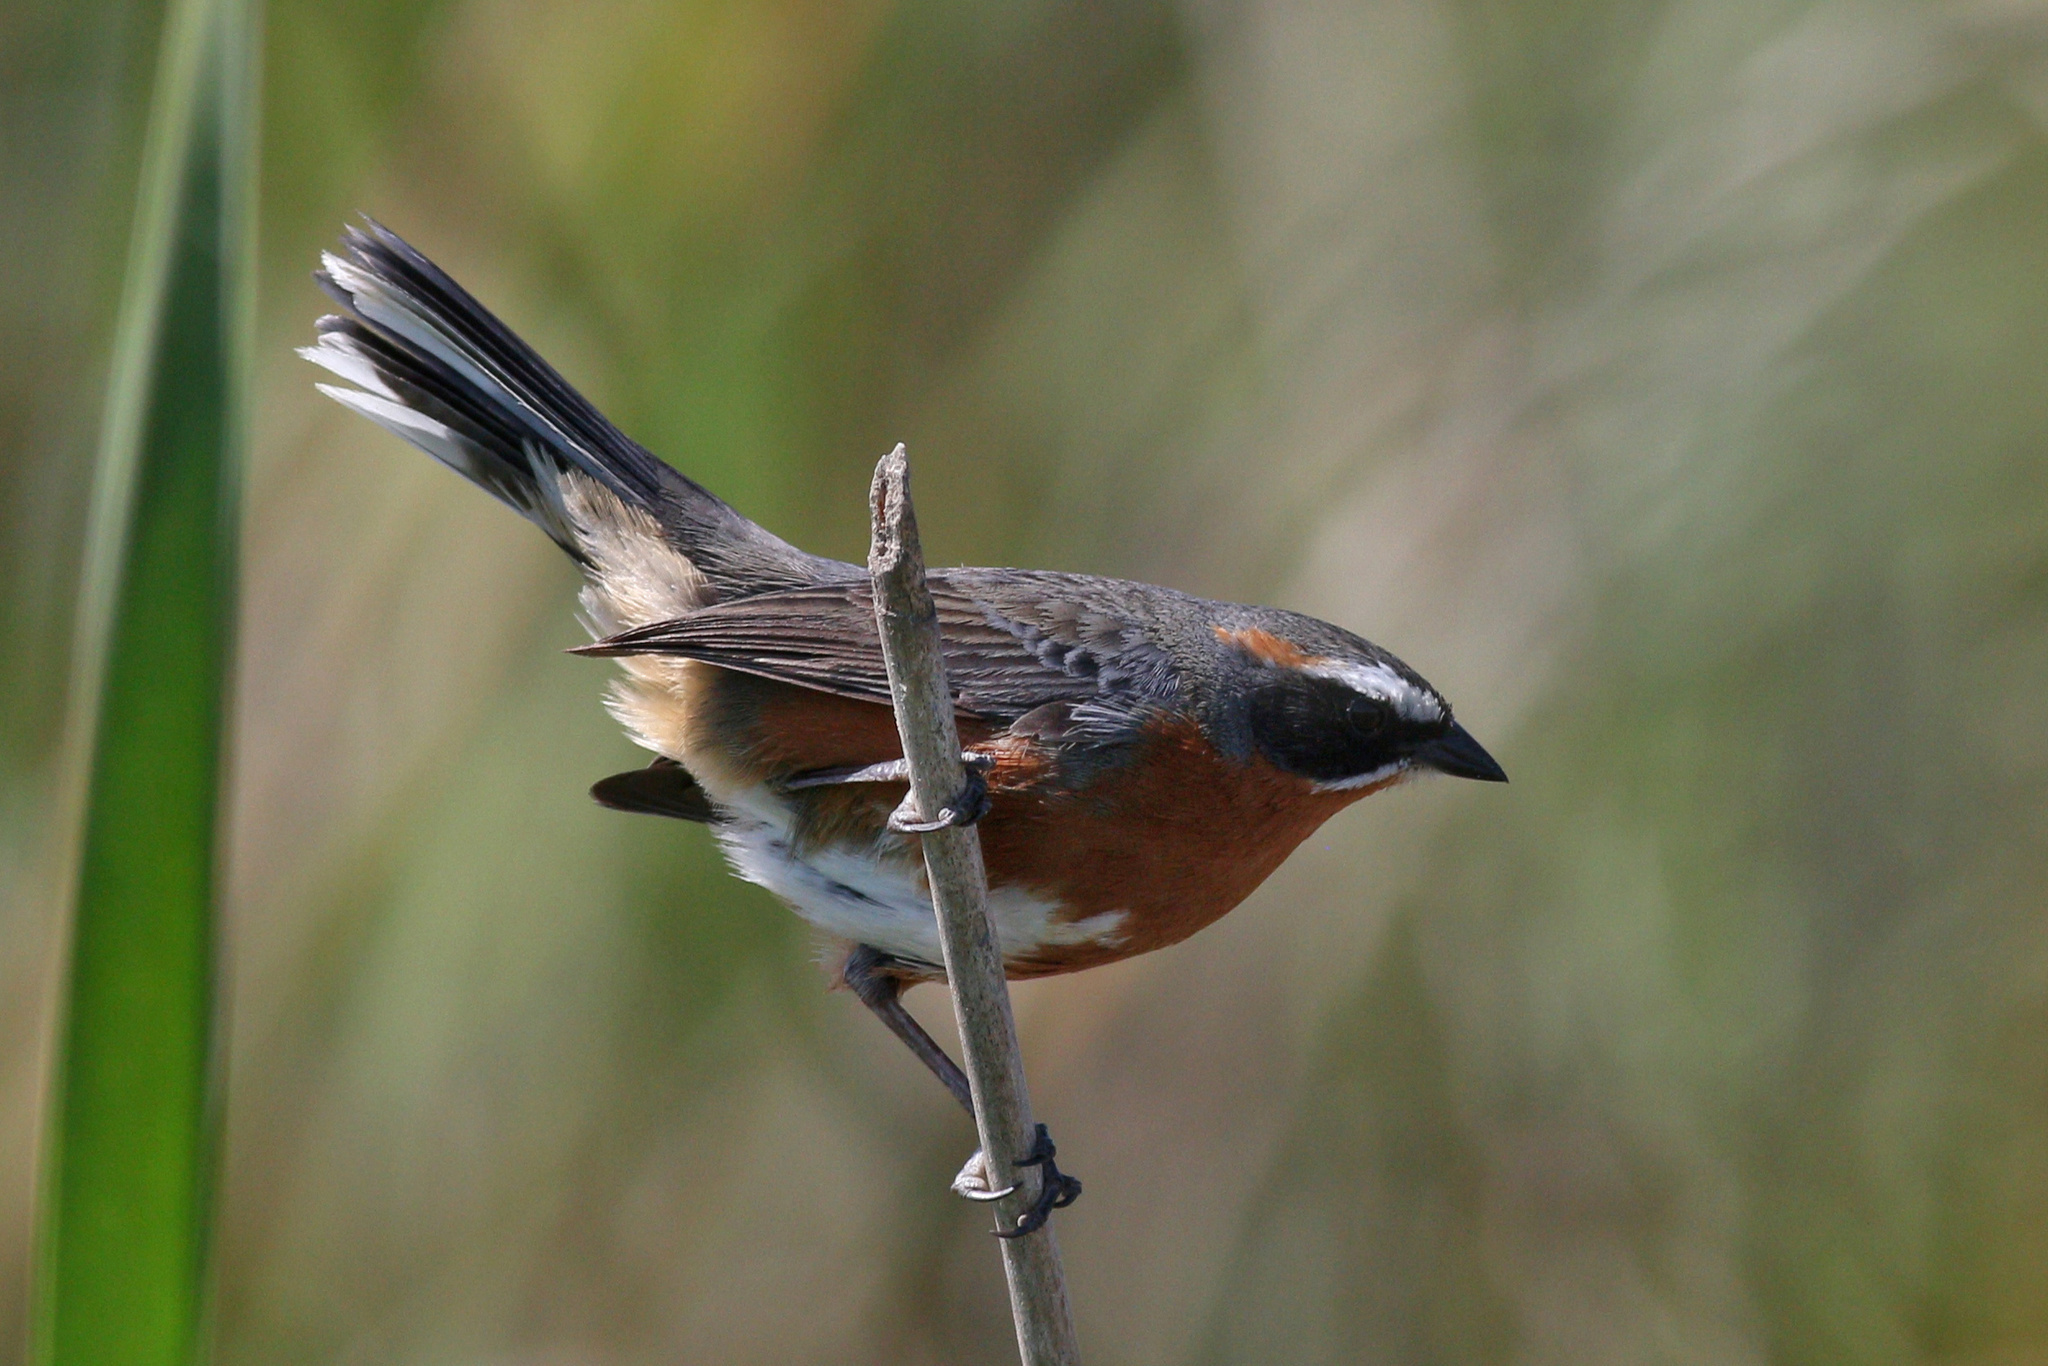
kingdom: Animalia
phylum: Chordata
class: Aves
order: Passeriformes
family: Thraupidae
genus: Poospiza
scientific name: Poospiza nigrorufa
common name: Black-and-rufous warbling finch
